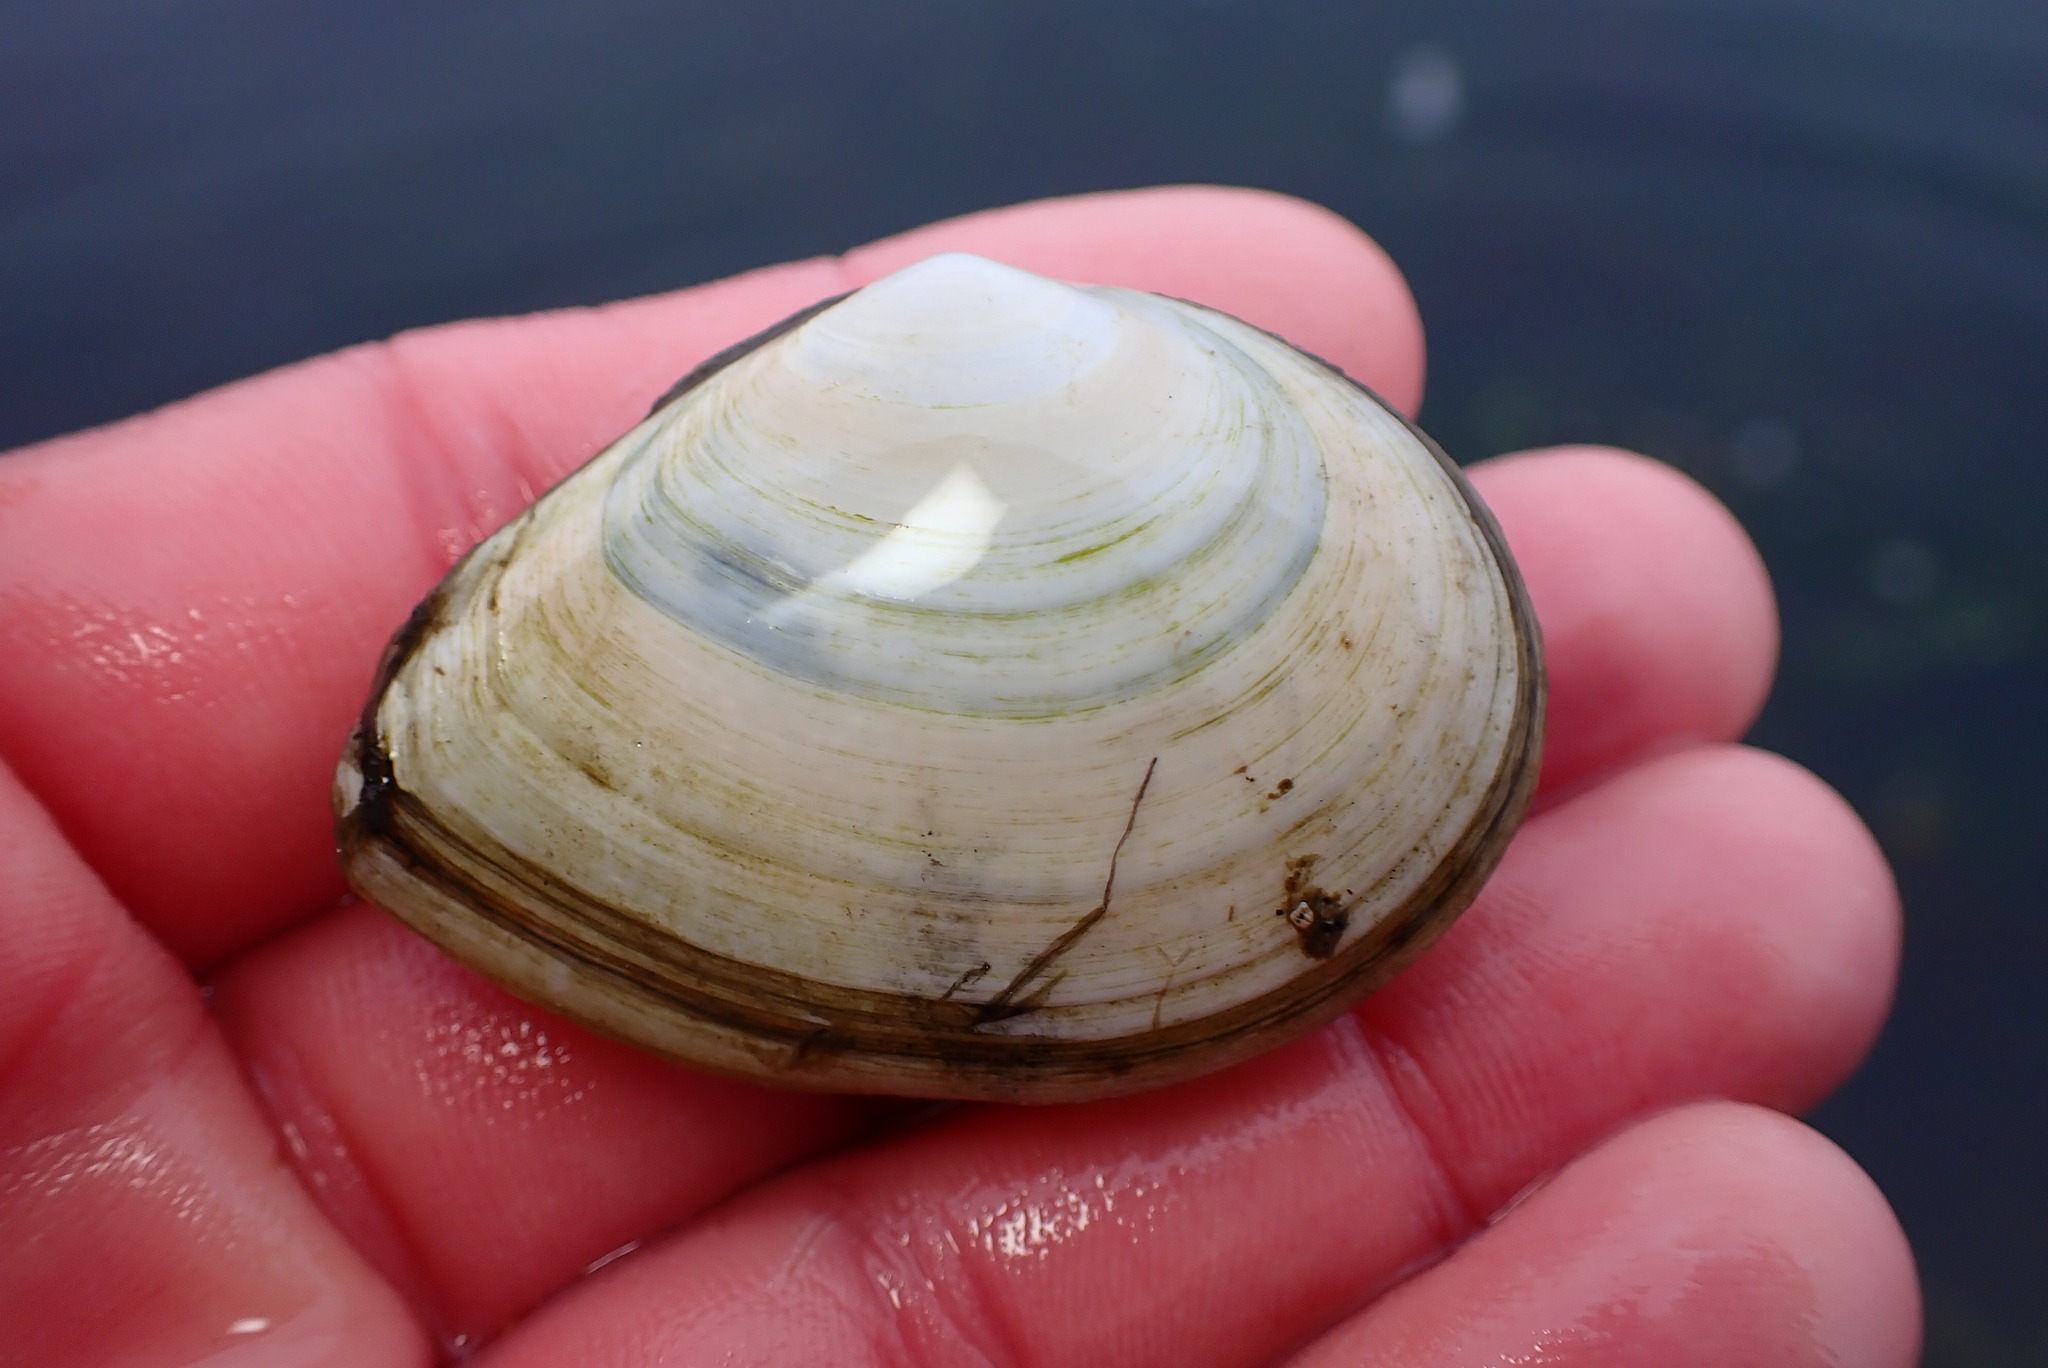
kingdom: Animalia
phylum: Mollusca
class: Bivalvia
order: Cardiida
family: Tellinidae
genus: Macoma
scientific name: Macoma nasuta
